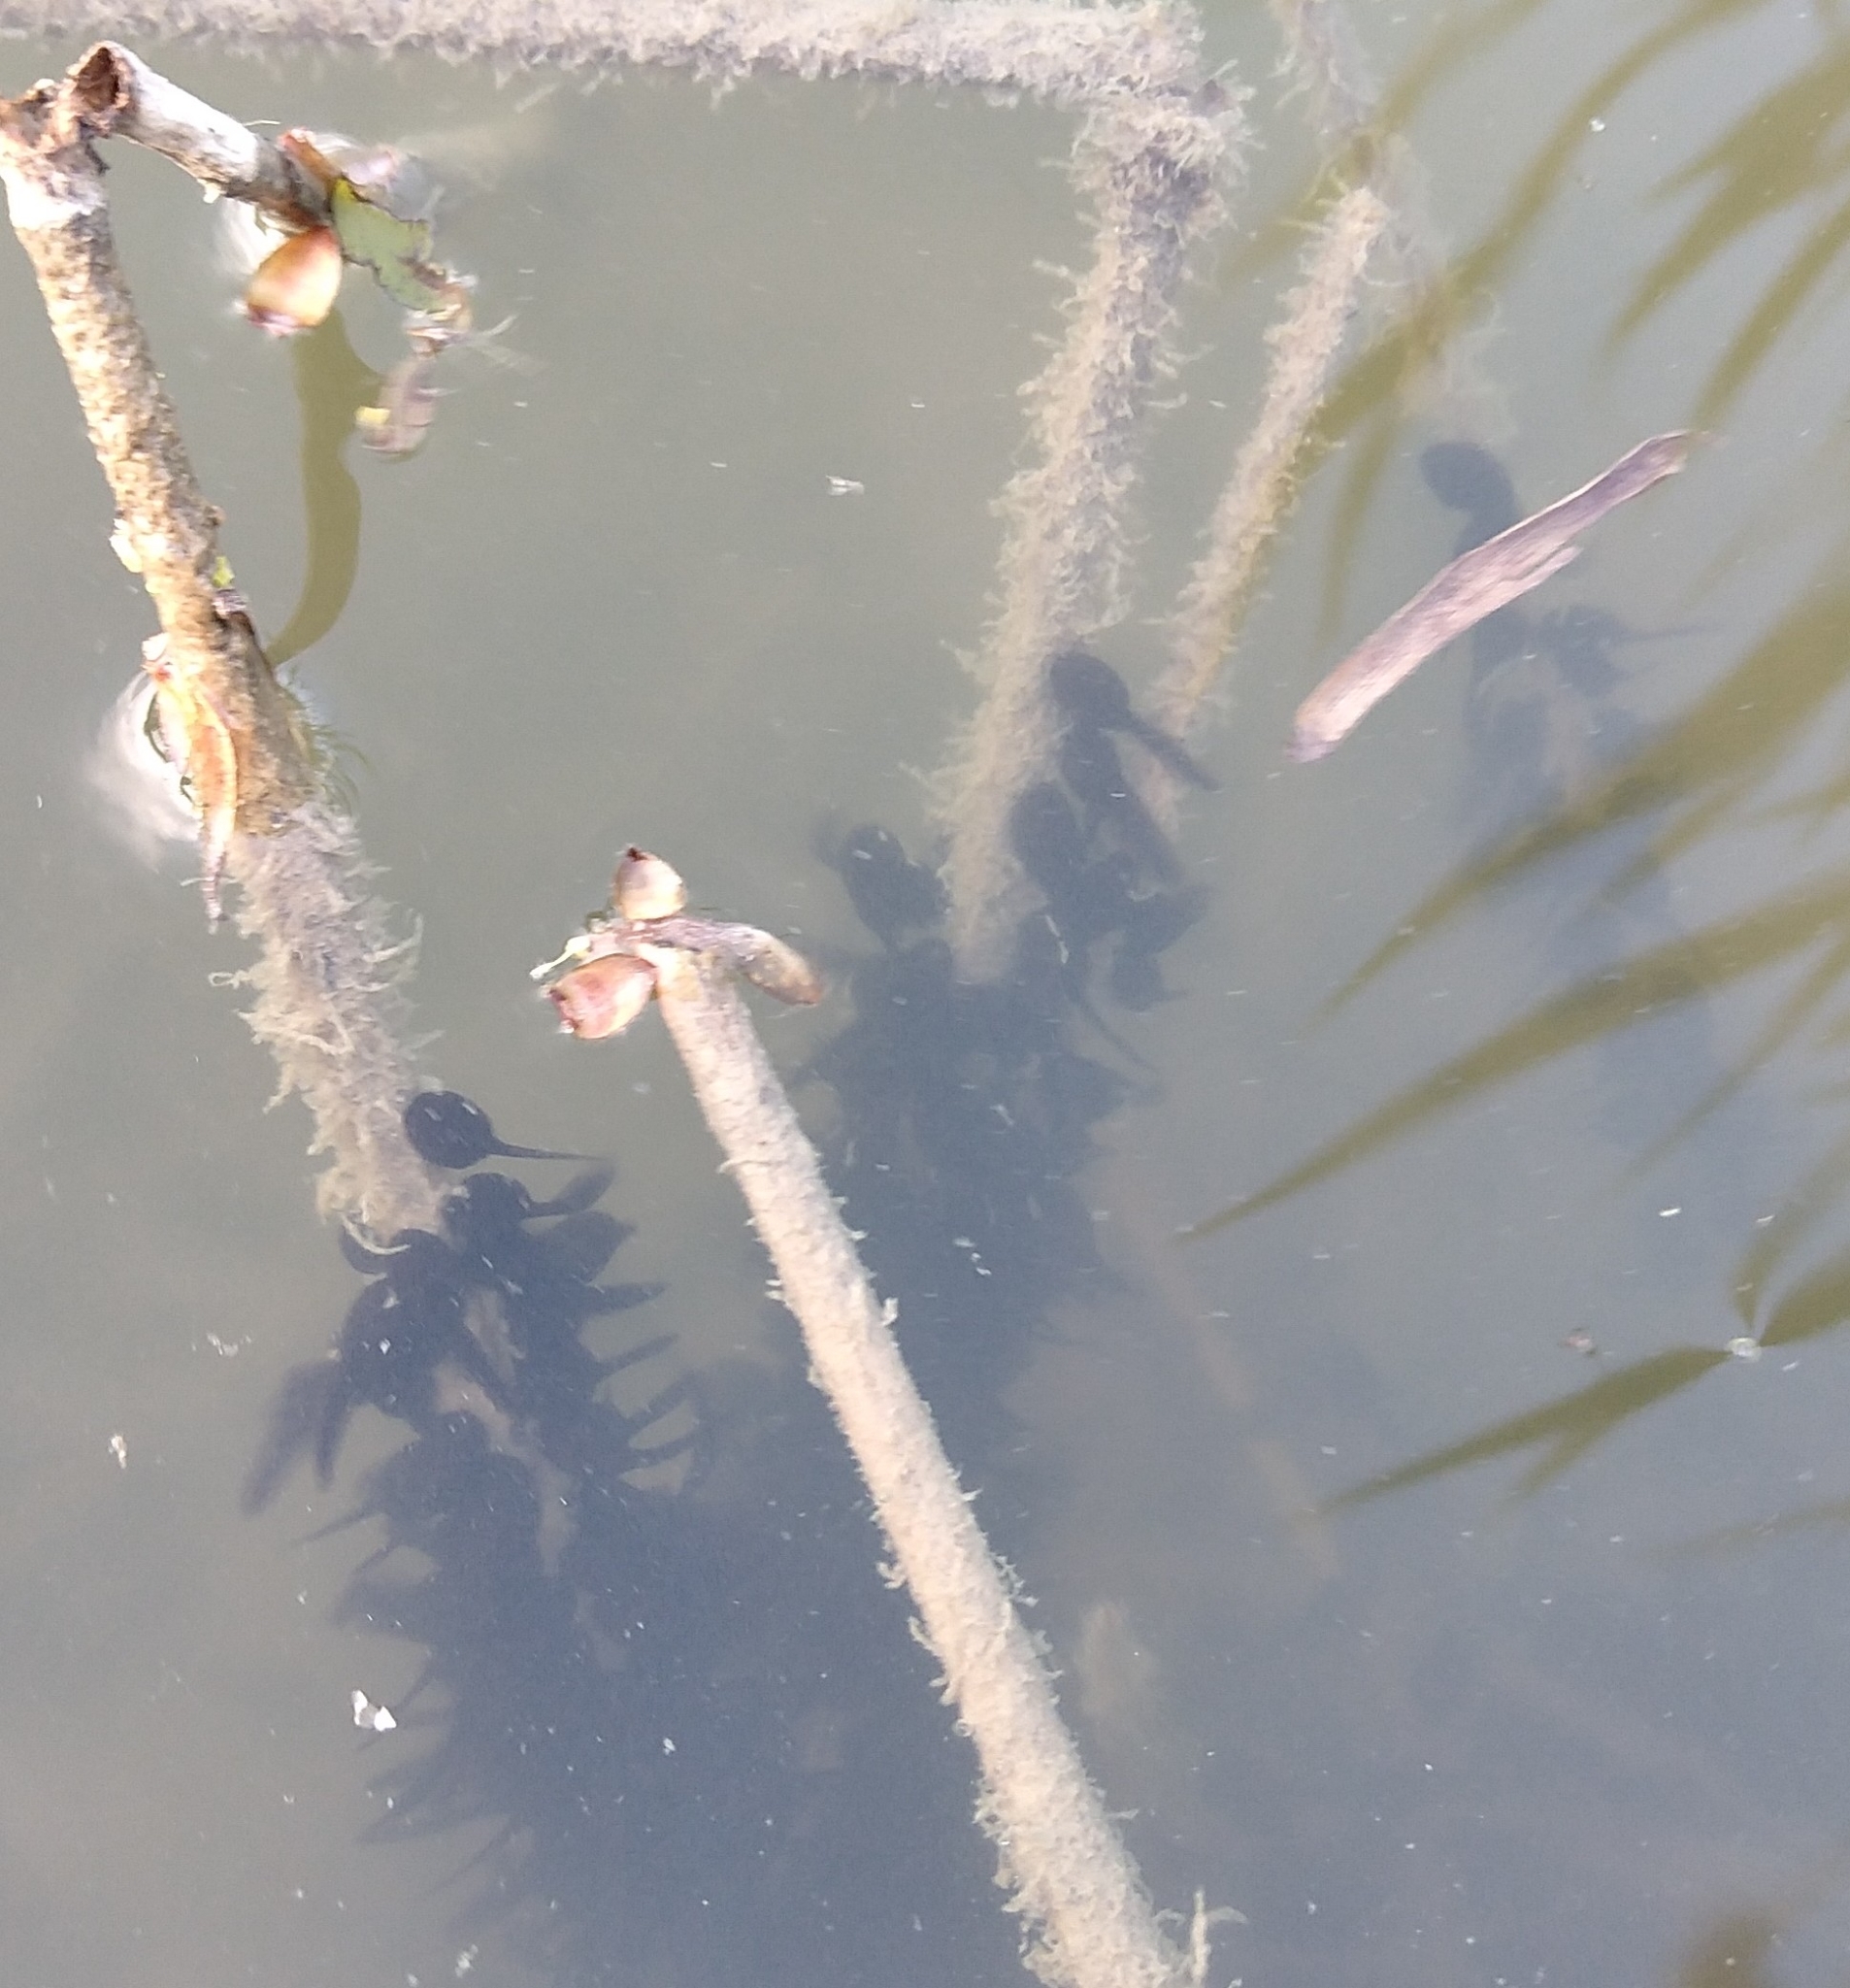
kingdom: Animalia
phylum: Chordata
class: Amphibia
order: Anura
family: Bufonidae
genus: Bufo
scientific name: Bufo bufo
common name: Common toad
